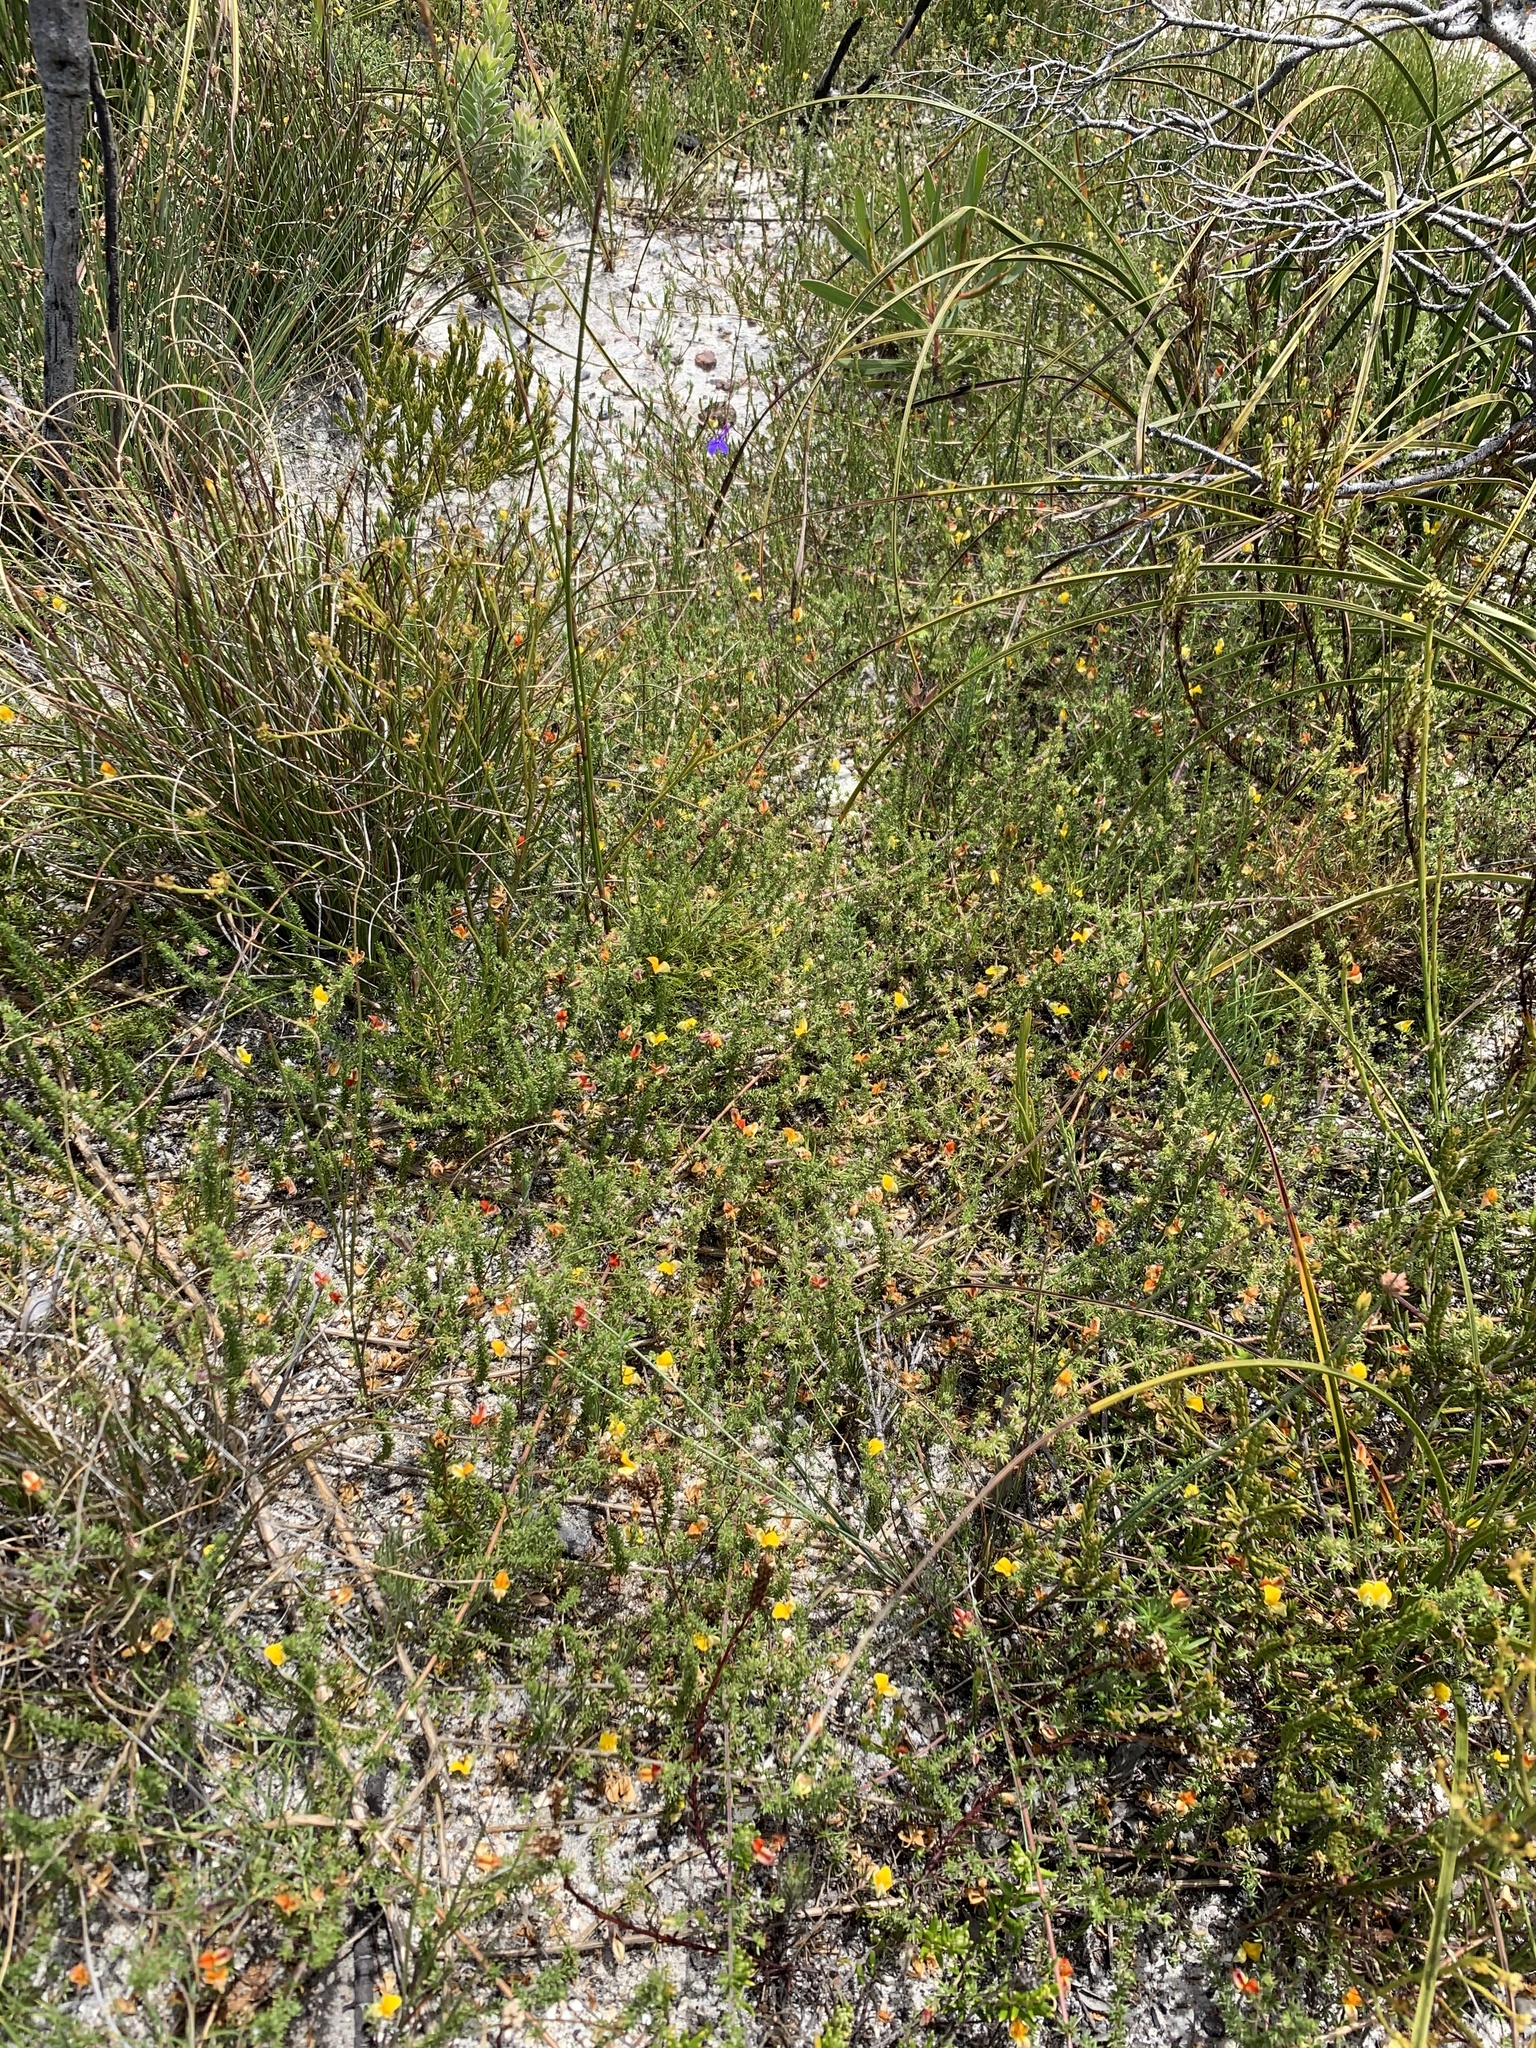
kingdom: Plantae
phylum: Tracheophyta
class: Magnoliopsida
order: Fabales
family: Fabaceae
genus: Aspalathus
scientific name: Aspalathus retroflexa
